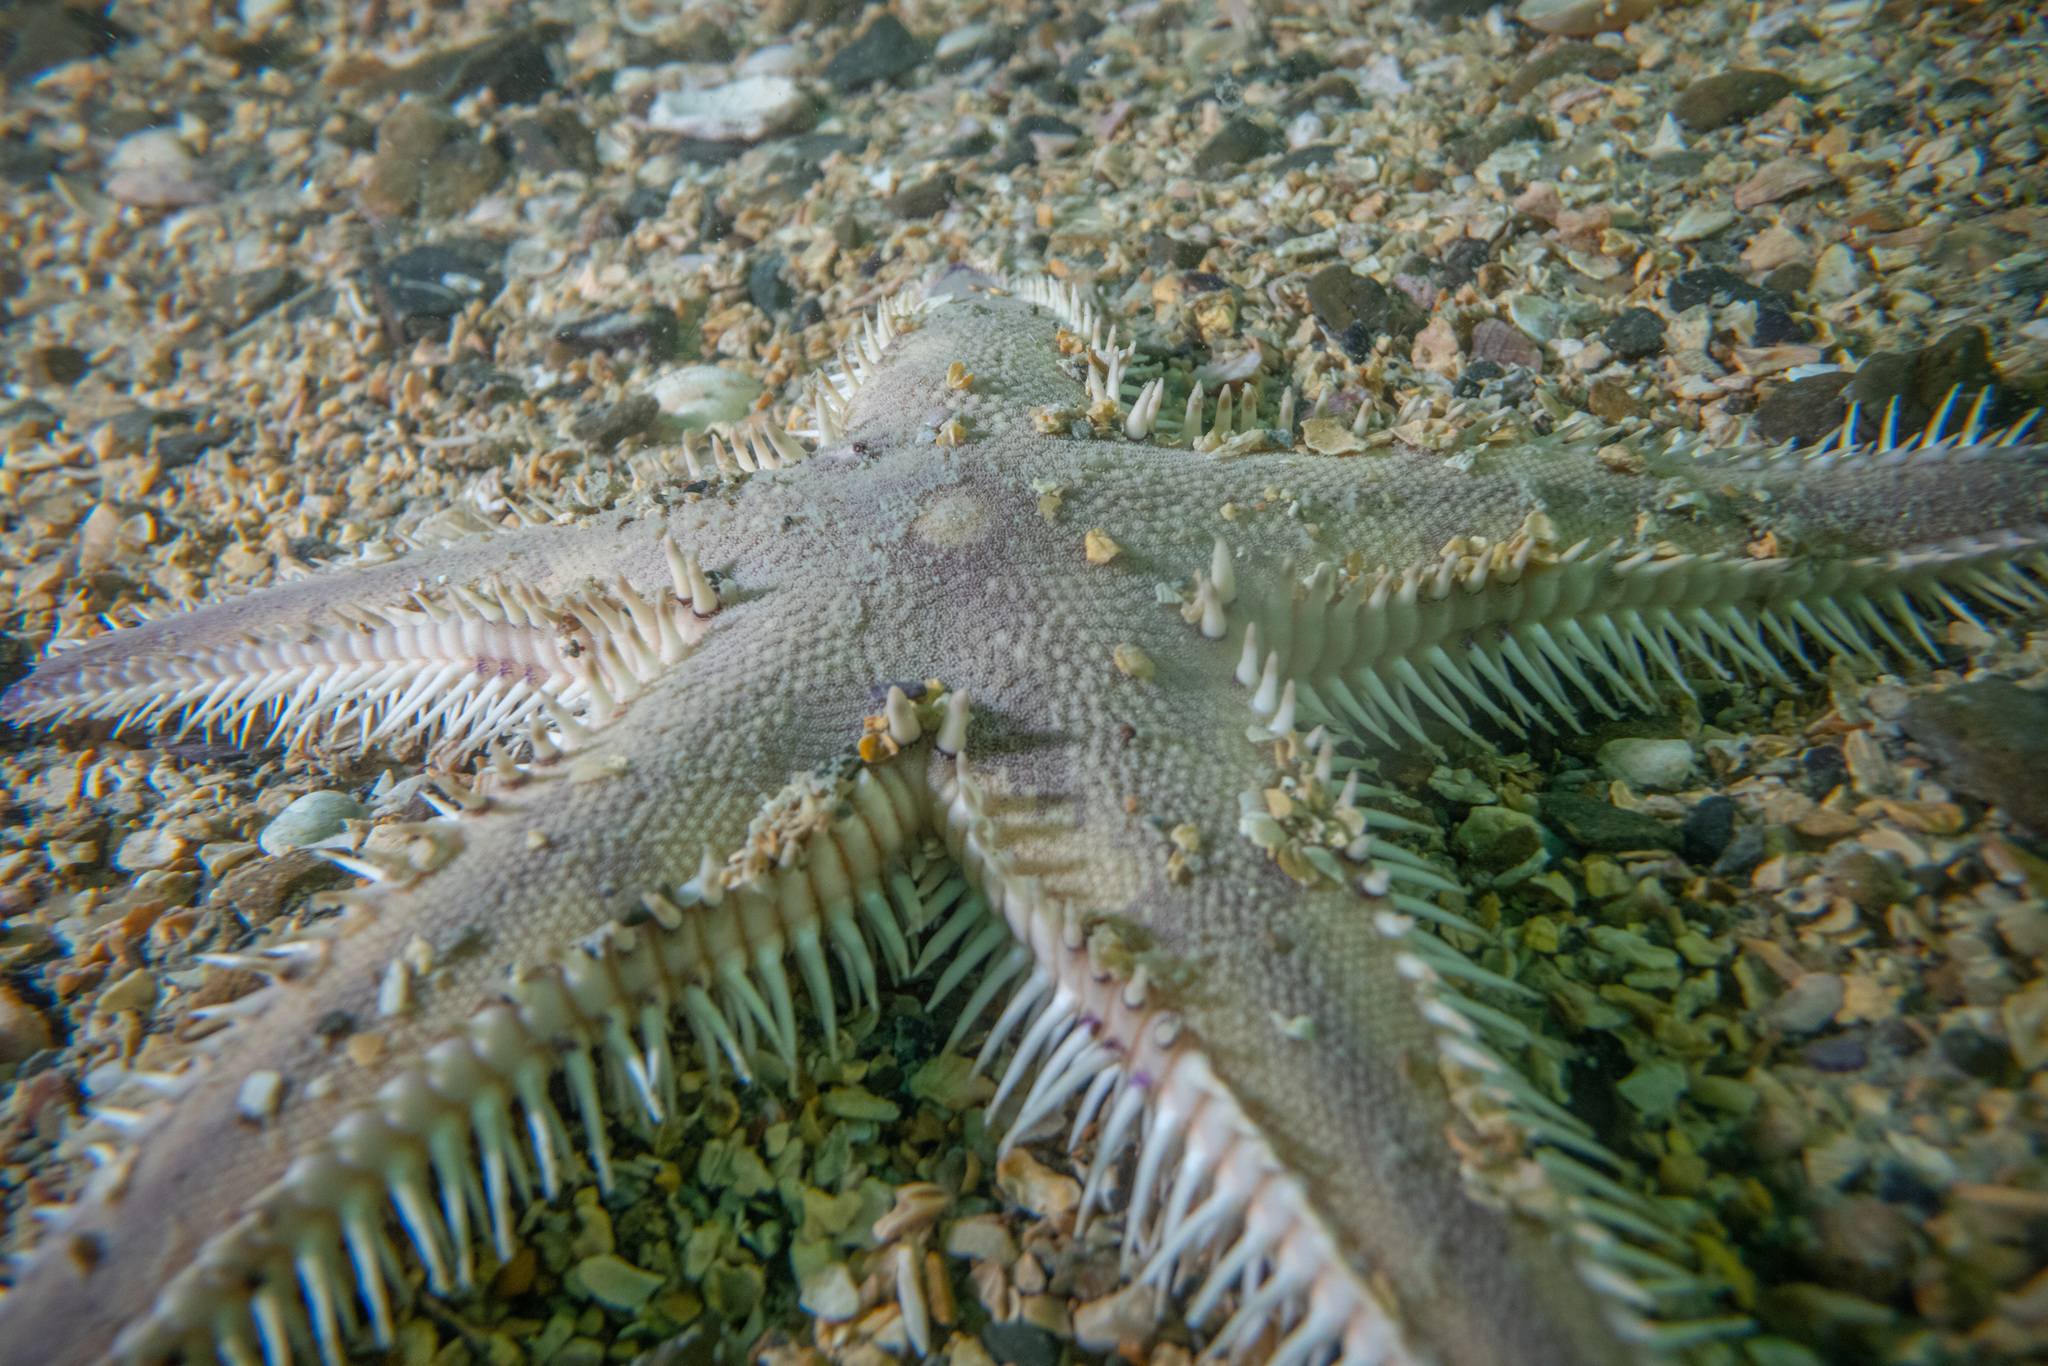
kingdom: Animalia
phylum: Echinodermata
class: Asteroidea
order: Paxillosida
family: Astropectinidae
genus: Astropecten
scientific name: Astropecten polyacanthus
